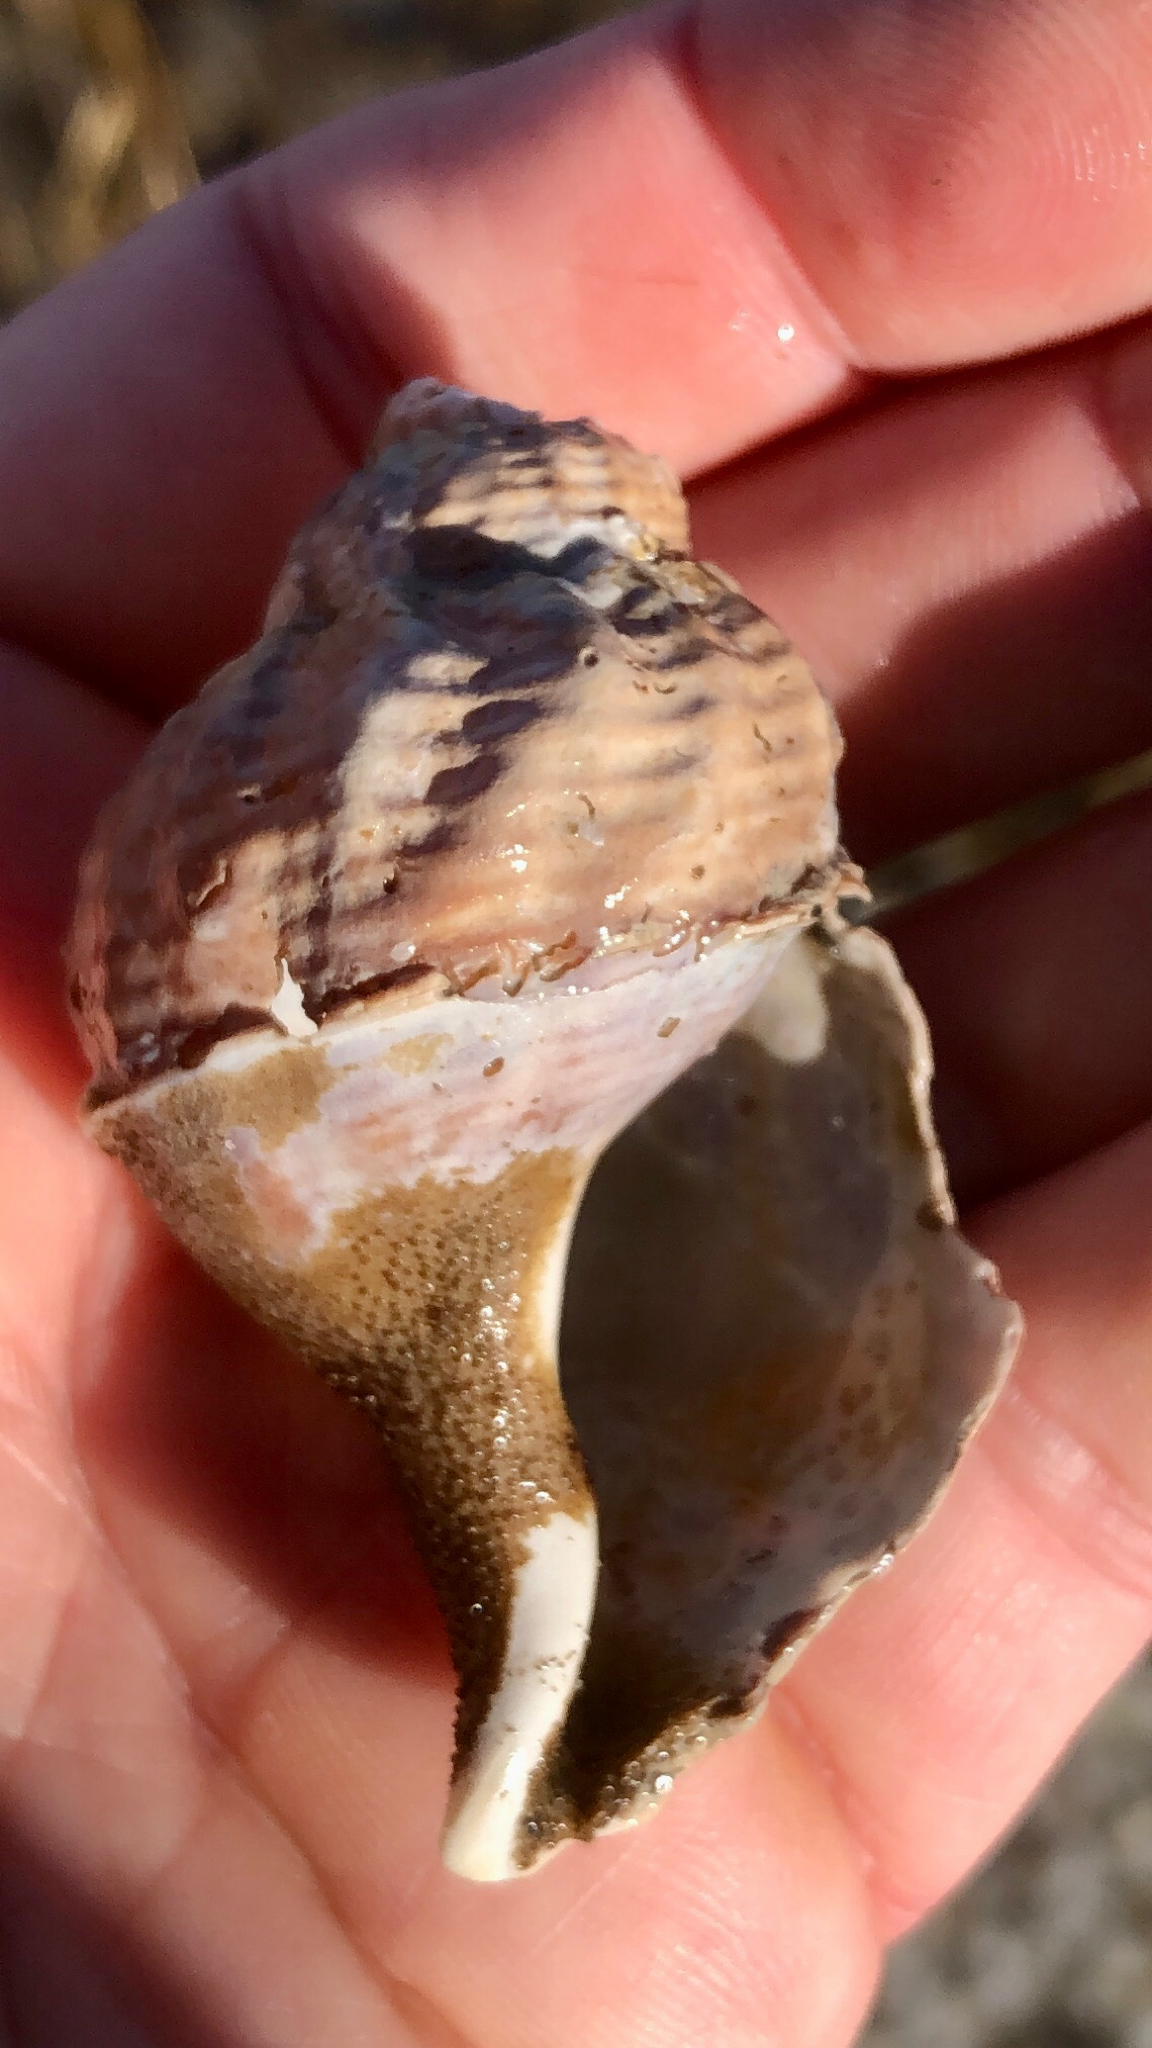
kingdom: Animalia
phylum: Mollusca
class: Gastropoda
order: Neogastropoda
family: Buccinidae
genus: Buccinum
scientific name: Buccinum undatum
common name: Common whelk
